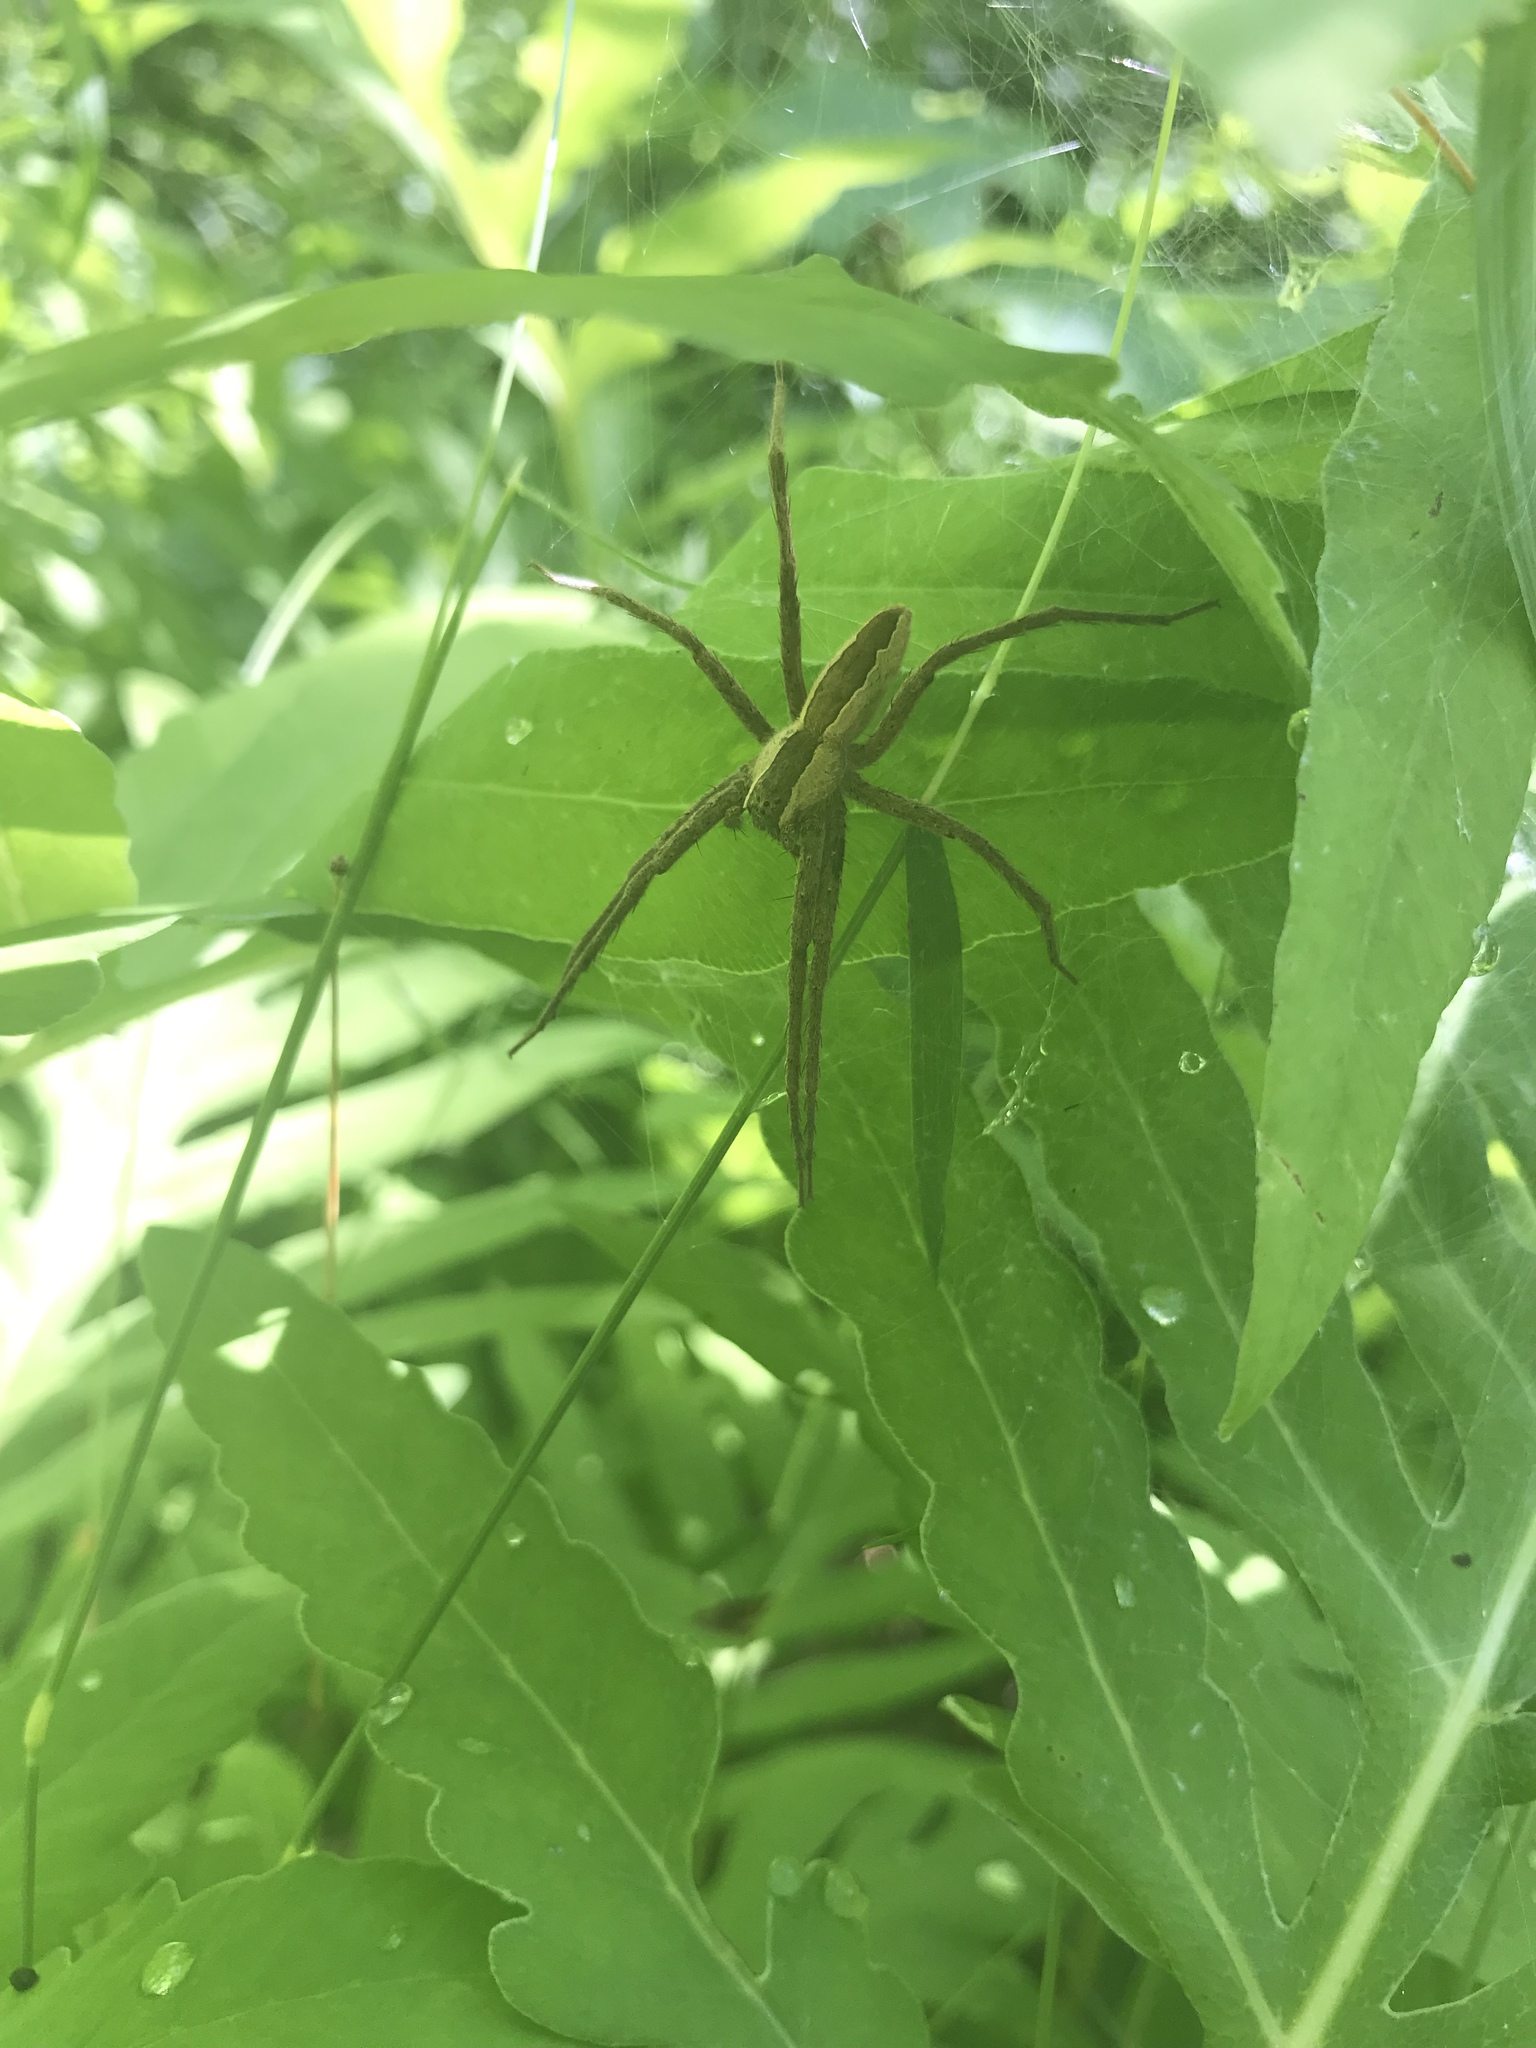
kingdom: Animalia
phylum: Arthropoda
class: Arachnida
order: Araneae
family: Pisauridae
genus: Pisaurina
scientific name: Pisaurina mira
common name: American nursery web spider
